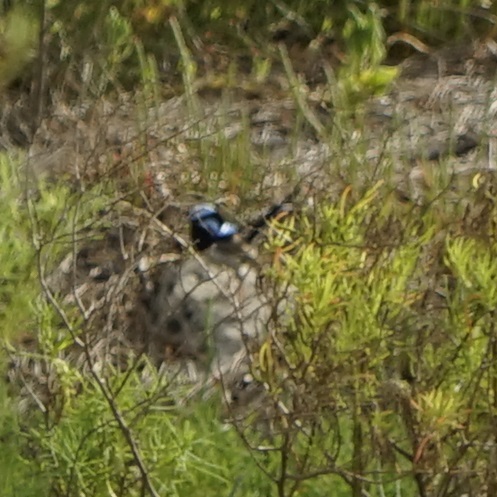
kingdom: Animalia
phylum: Chordata
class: Aves
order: Passeriformes
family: Maluridae
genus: Malurus
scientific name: Malurus cyaneus
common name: Superb fairywren
